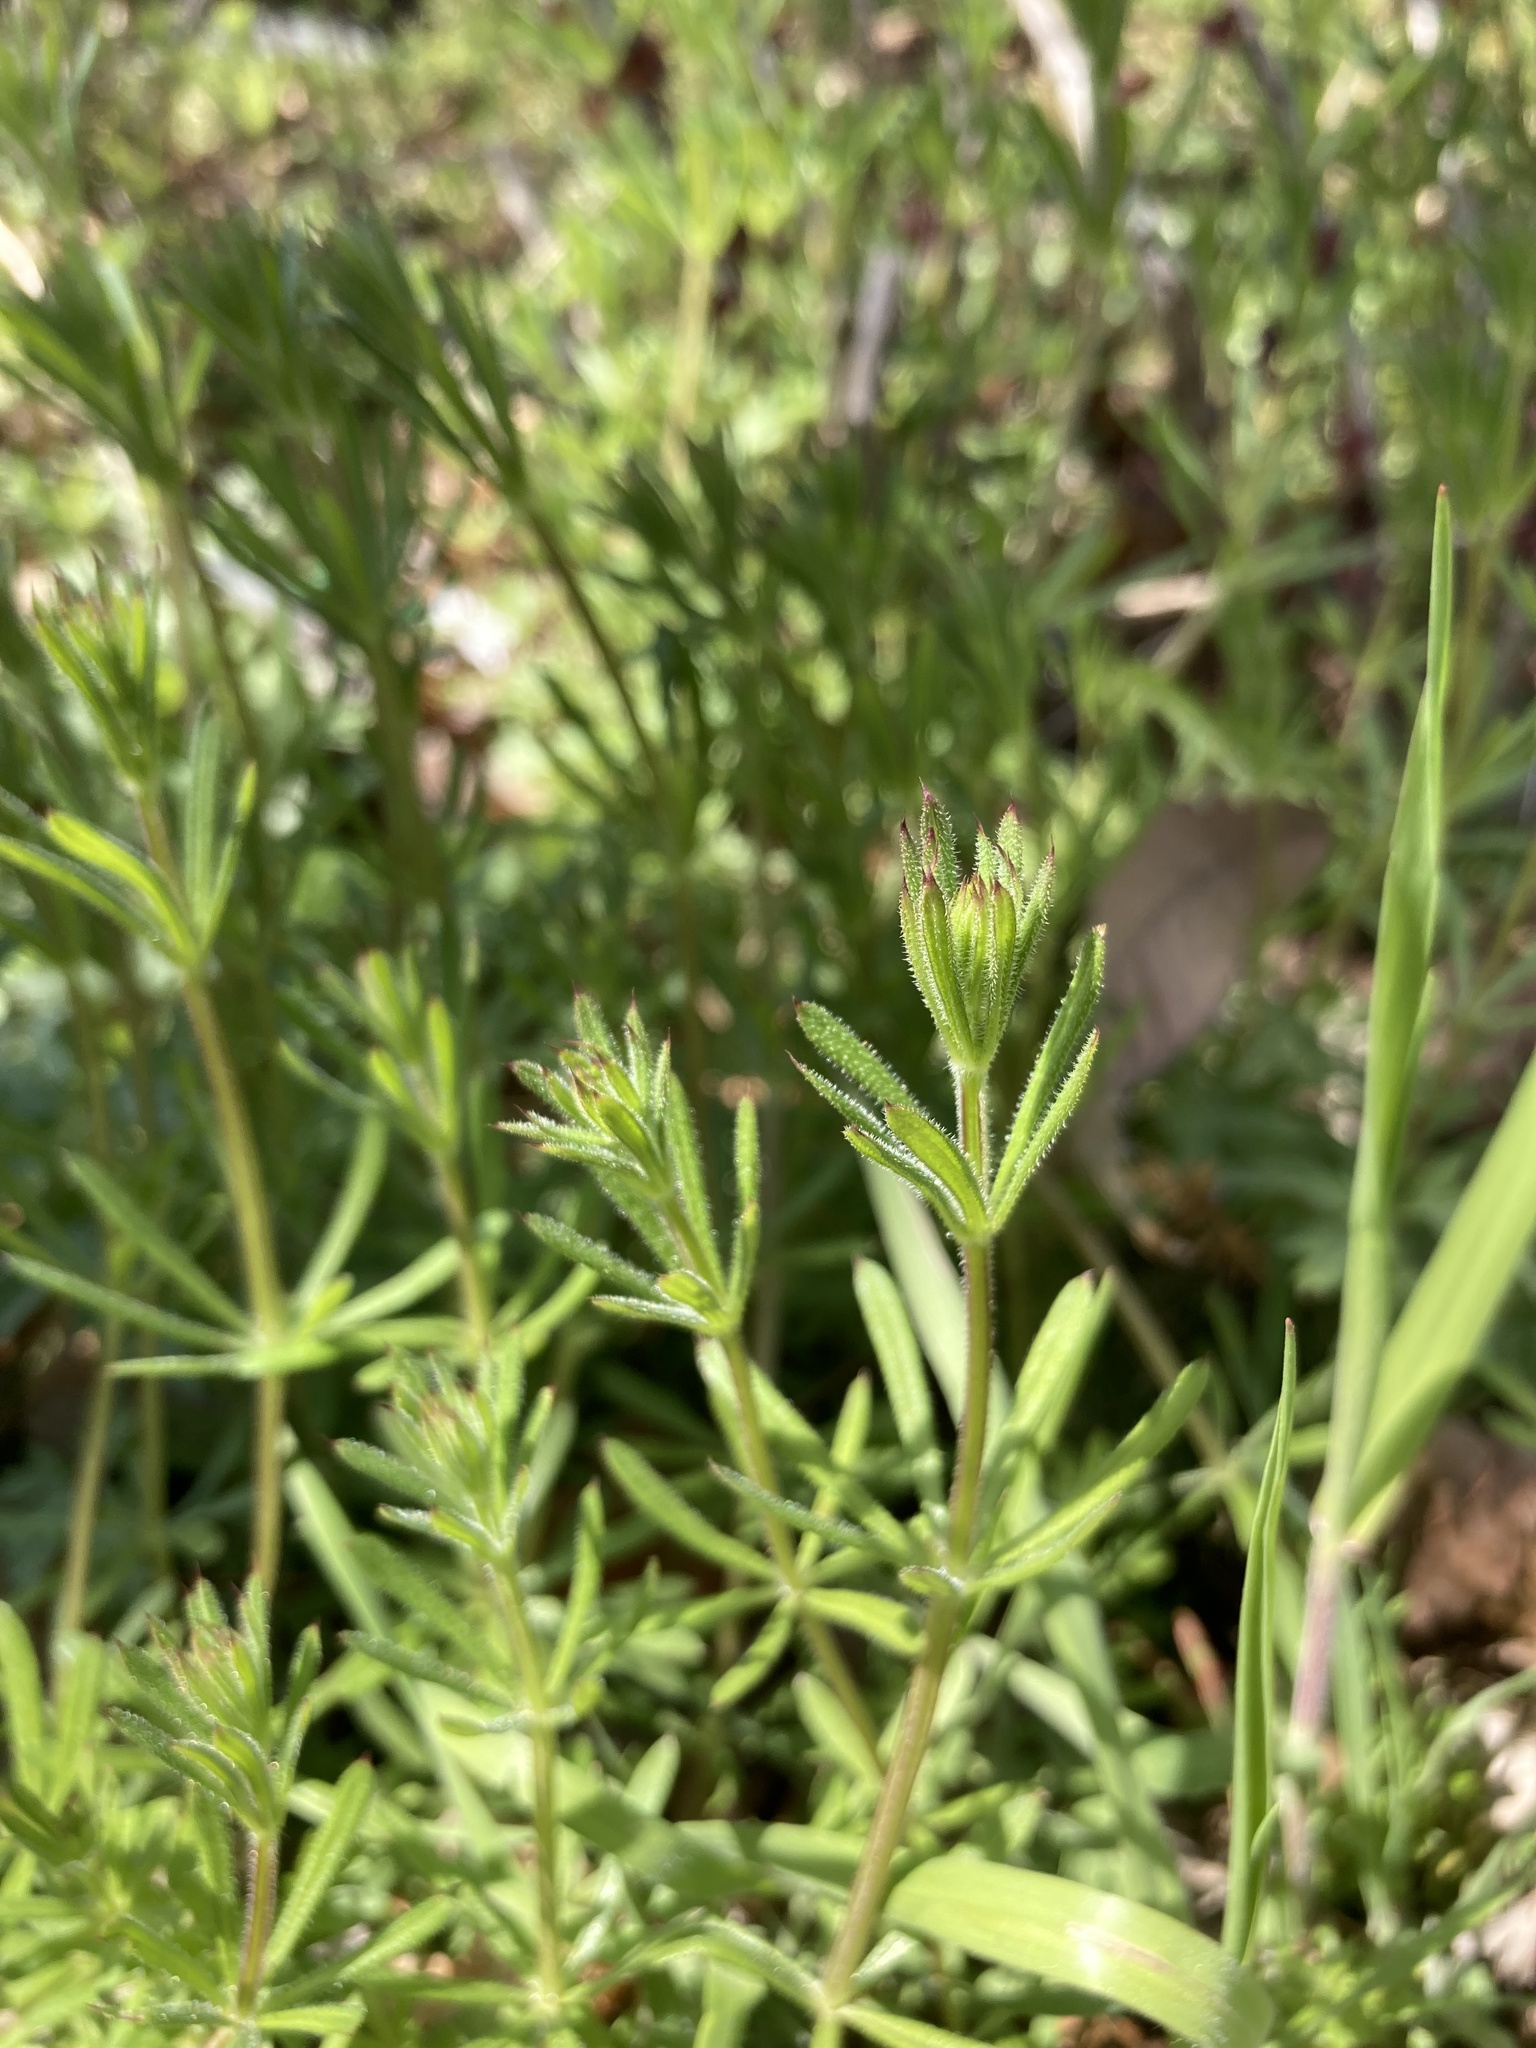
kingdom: Plantae
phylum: Tracheophyta
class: Magnoliopsida
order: Gentianales
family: Rubiaceae
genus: Galium
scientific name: Galium aparine
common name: Cleavers
